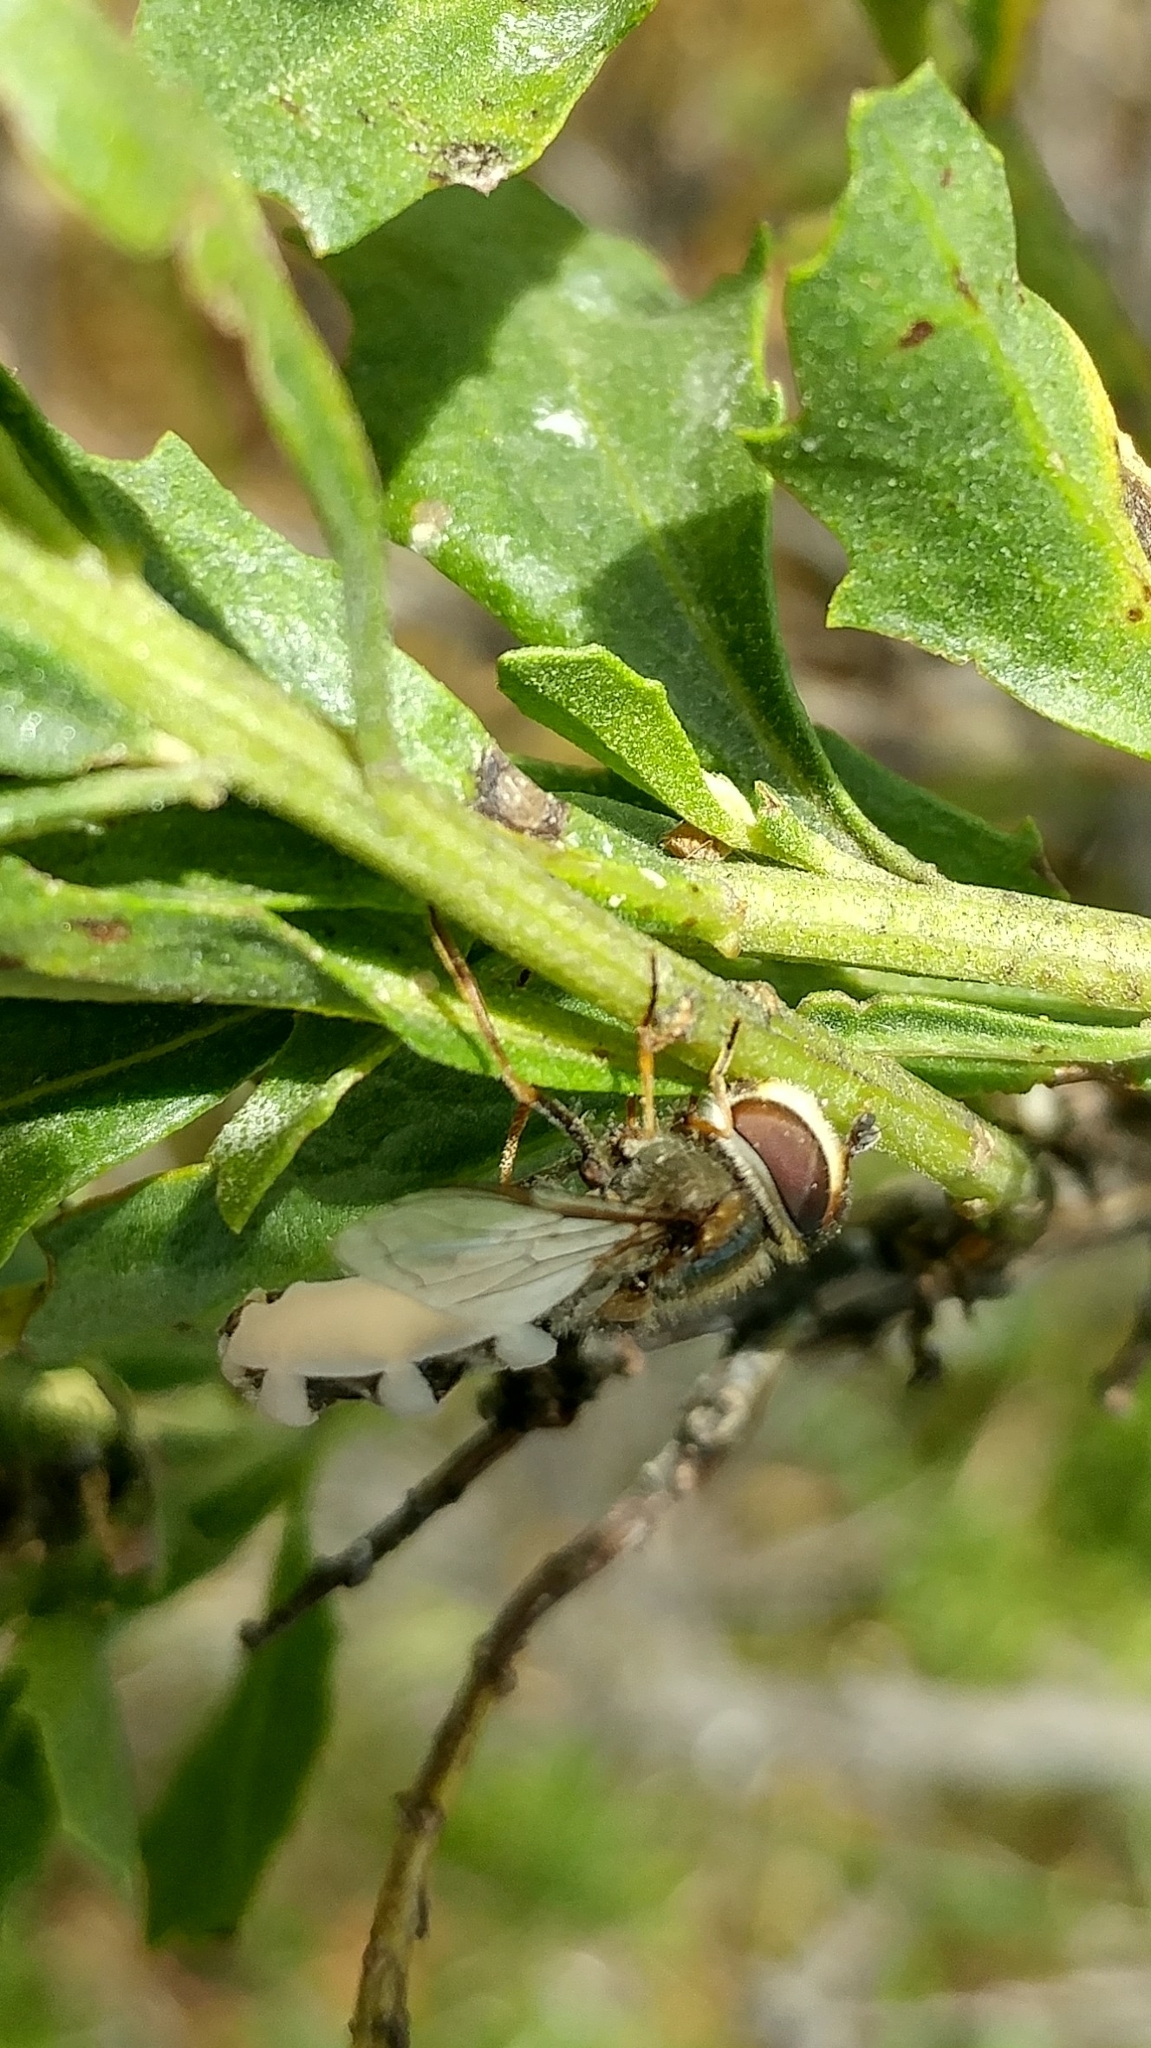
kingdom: Fungi
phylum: Entomophthoromycota
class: Entomophthoromycetes
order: Entomophthorales
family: Entomophthoraceae
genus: Entomophthora
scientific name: Entomophthora
